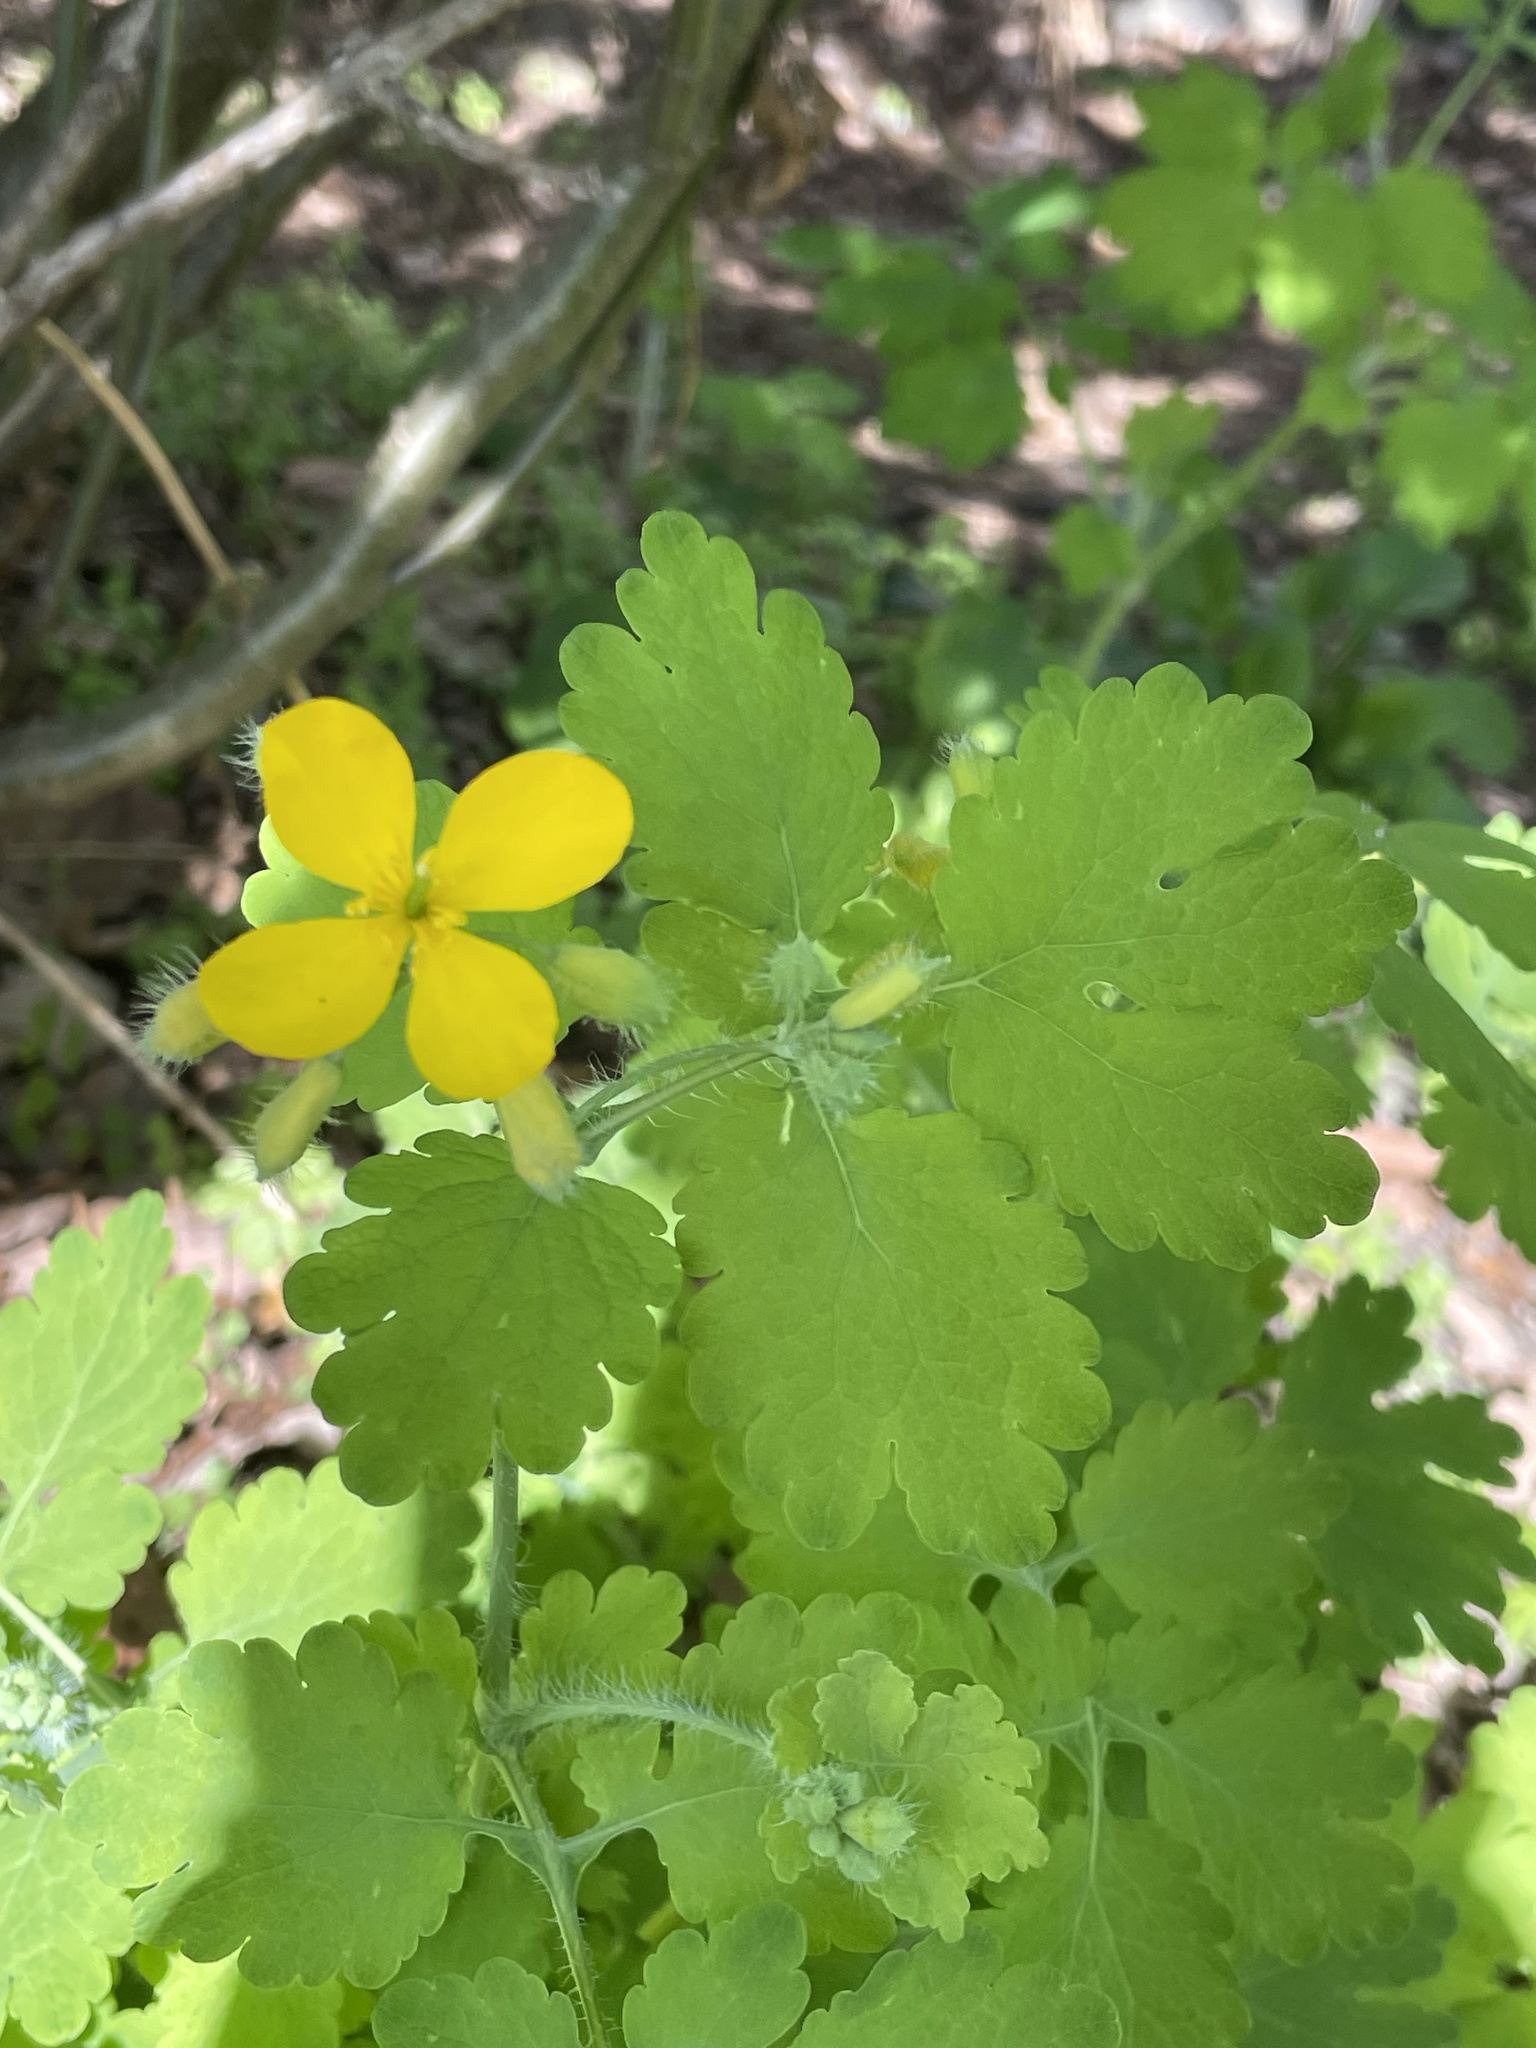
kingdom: Plantae
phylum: Tracheophyta
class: Magnoliopsida
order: Ranunculales
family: Papaveraceae
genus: Chelidonium
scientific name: Chelidonium majus
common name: Greater celandine
